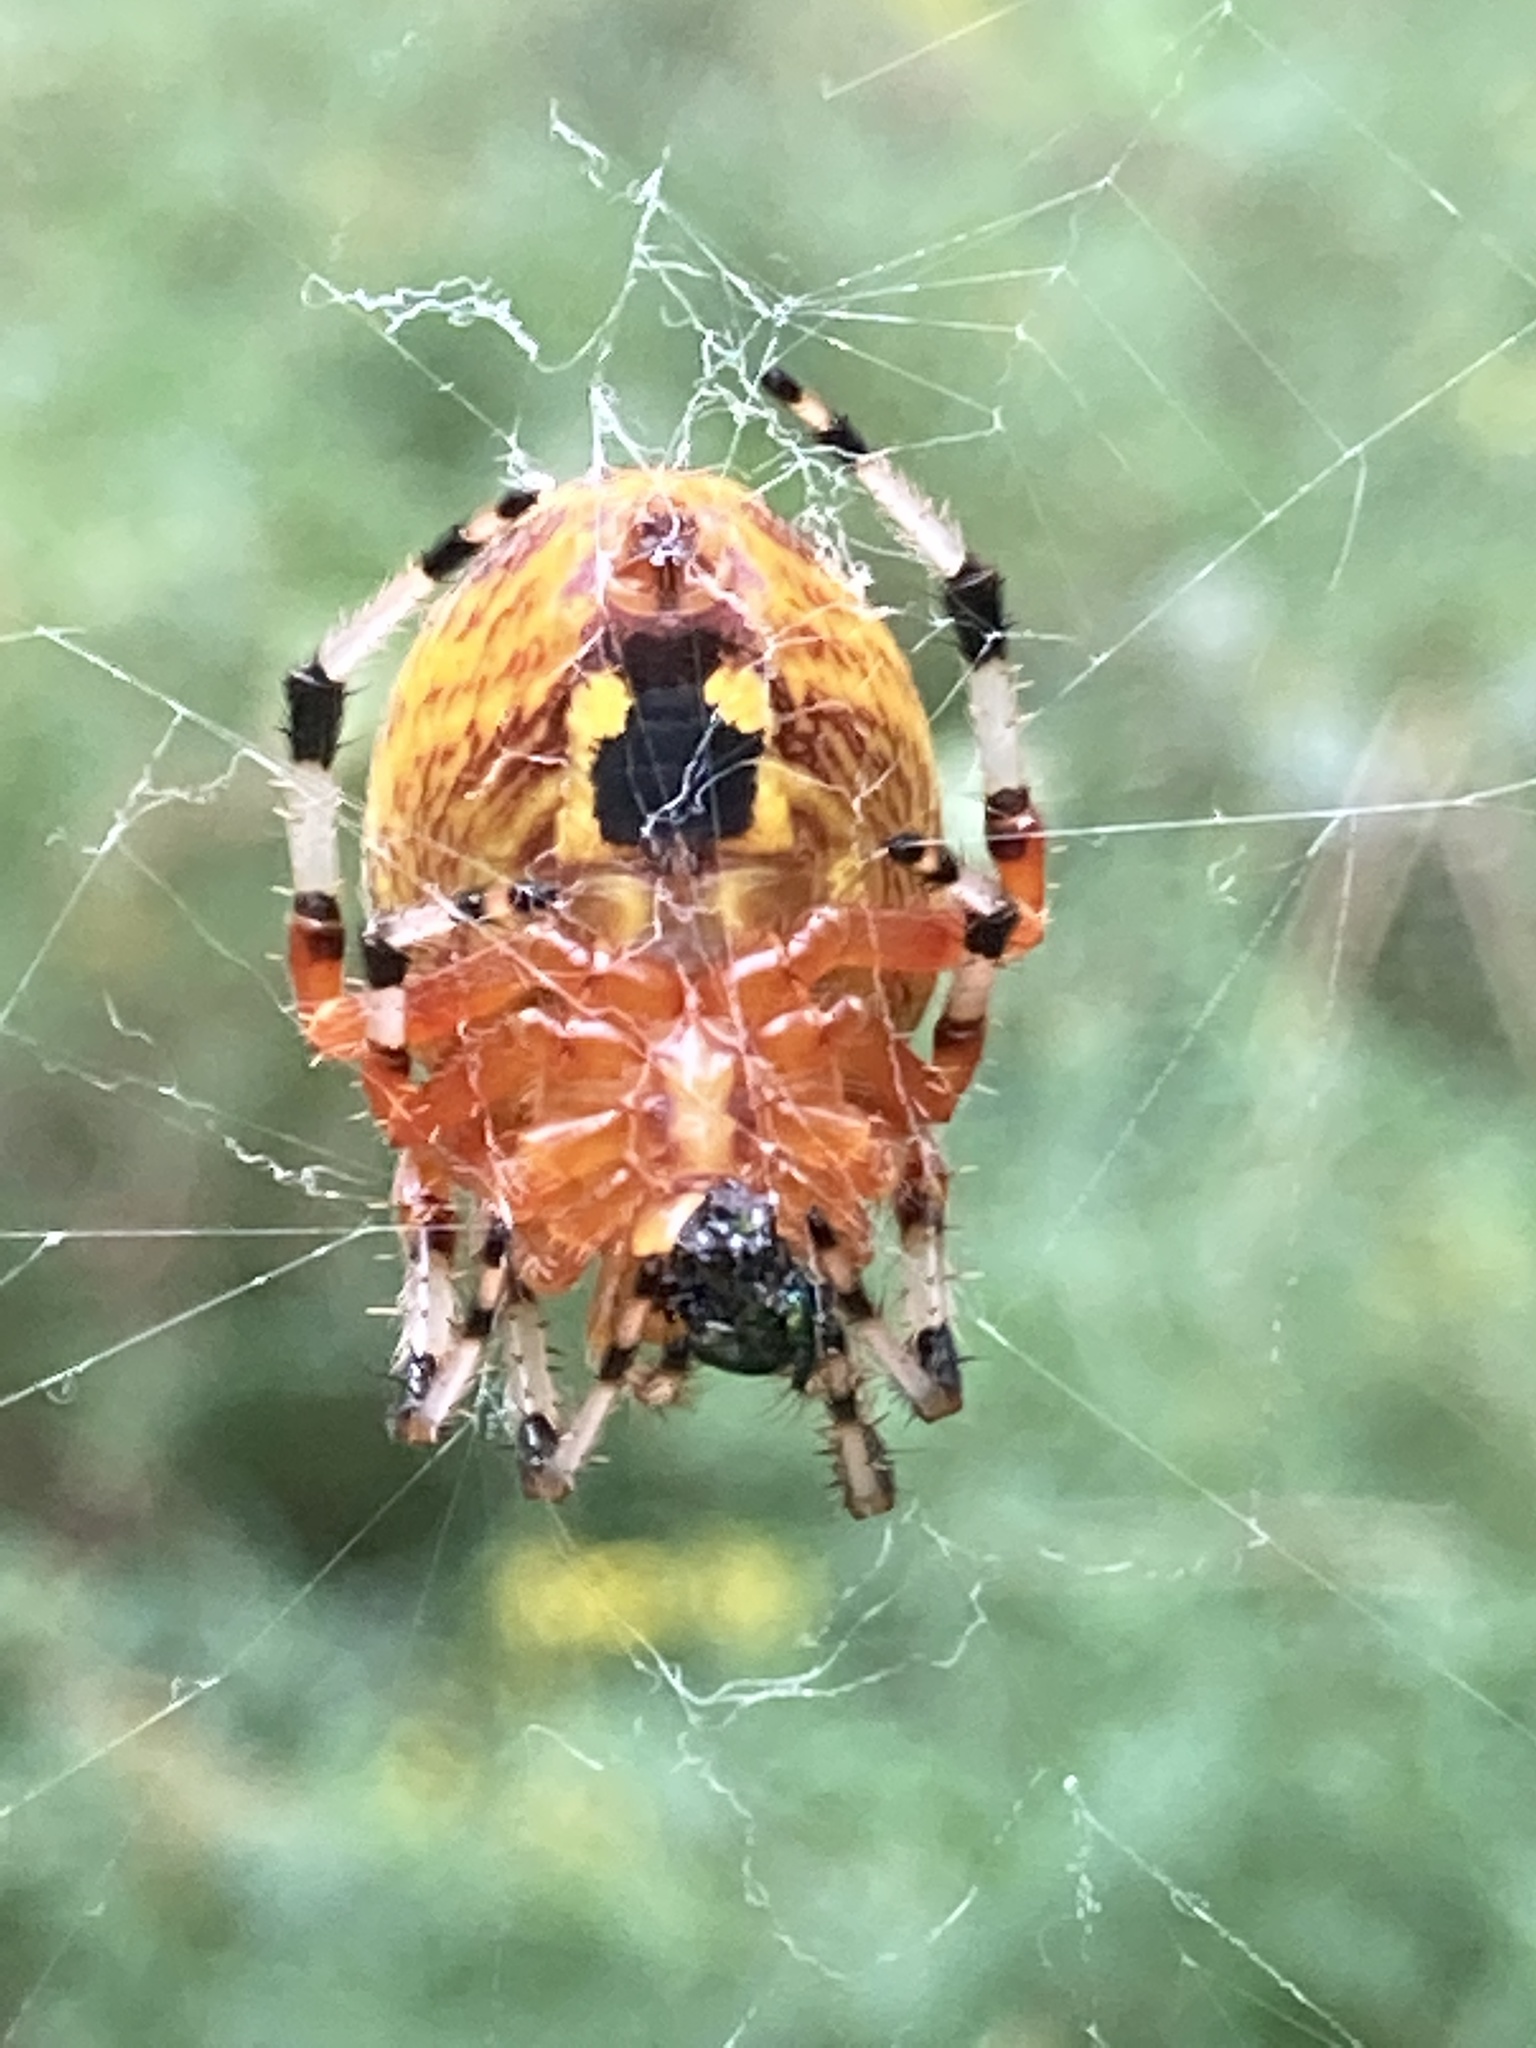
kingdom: Animalia
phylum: Arthropoda
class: Arachnida
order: Araneae
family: Araneidae
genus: Araneus
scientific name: Araneus marmoreus
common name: Marbled orbweaver
